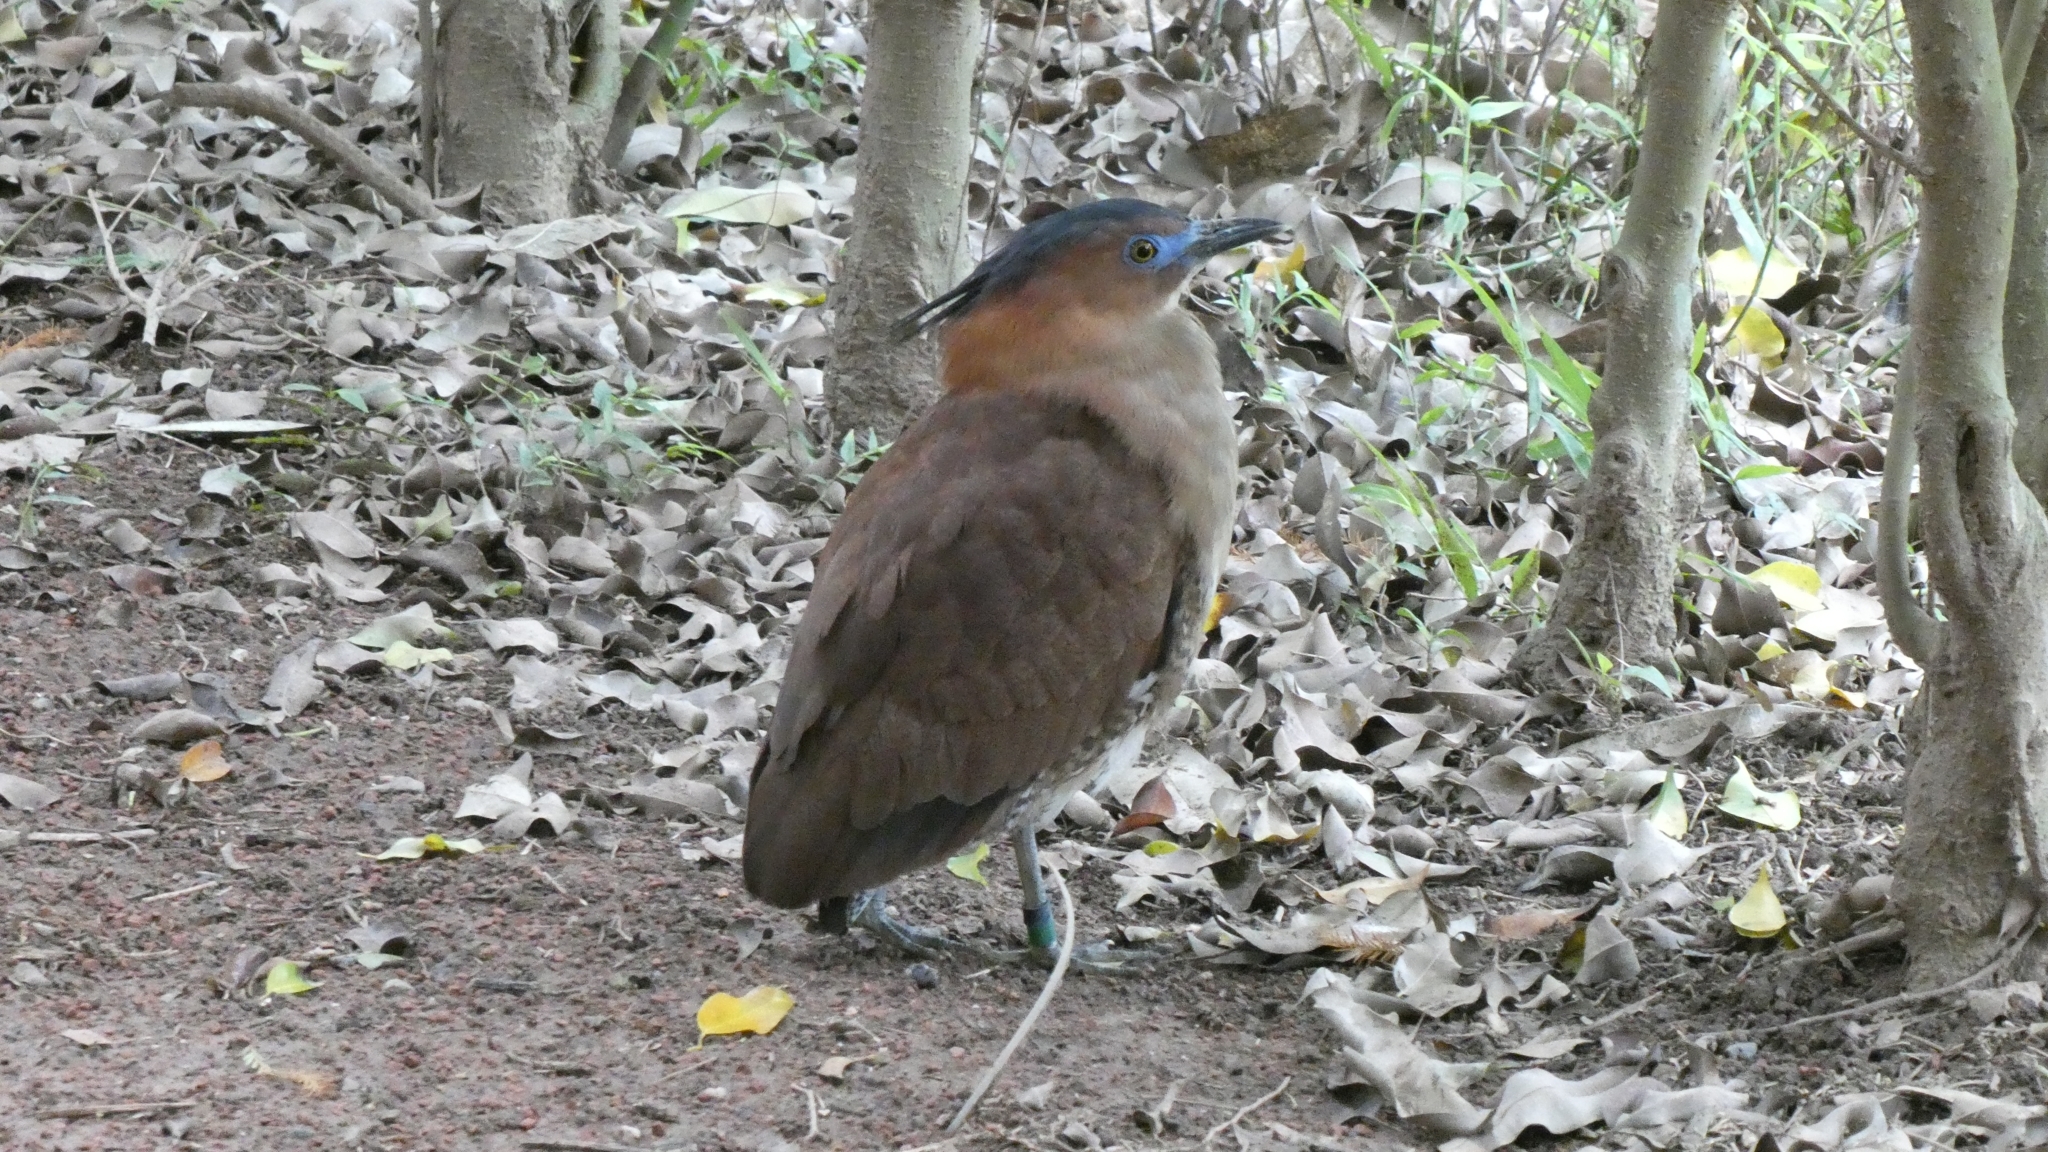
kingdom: Animalia
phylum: Chordata
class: Aves
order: Pelecaniformes
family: Ardeidae
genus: Gorsachius
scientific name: Gorsachius melanolophus
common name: Malayan night heron
